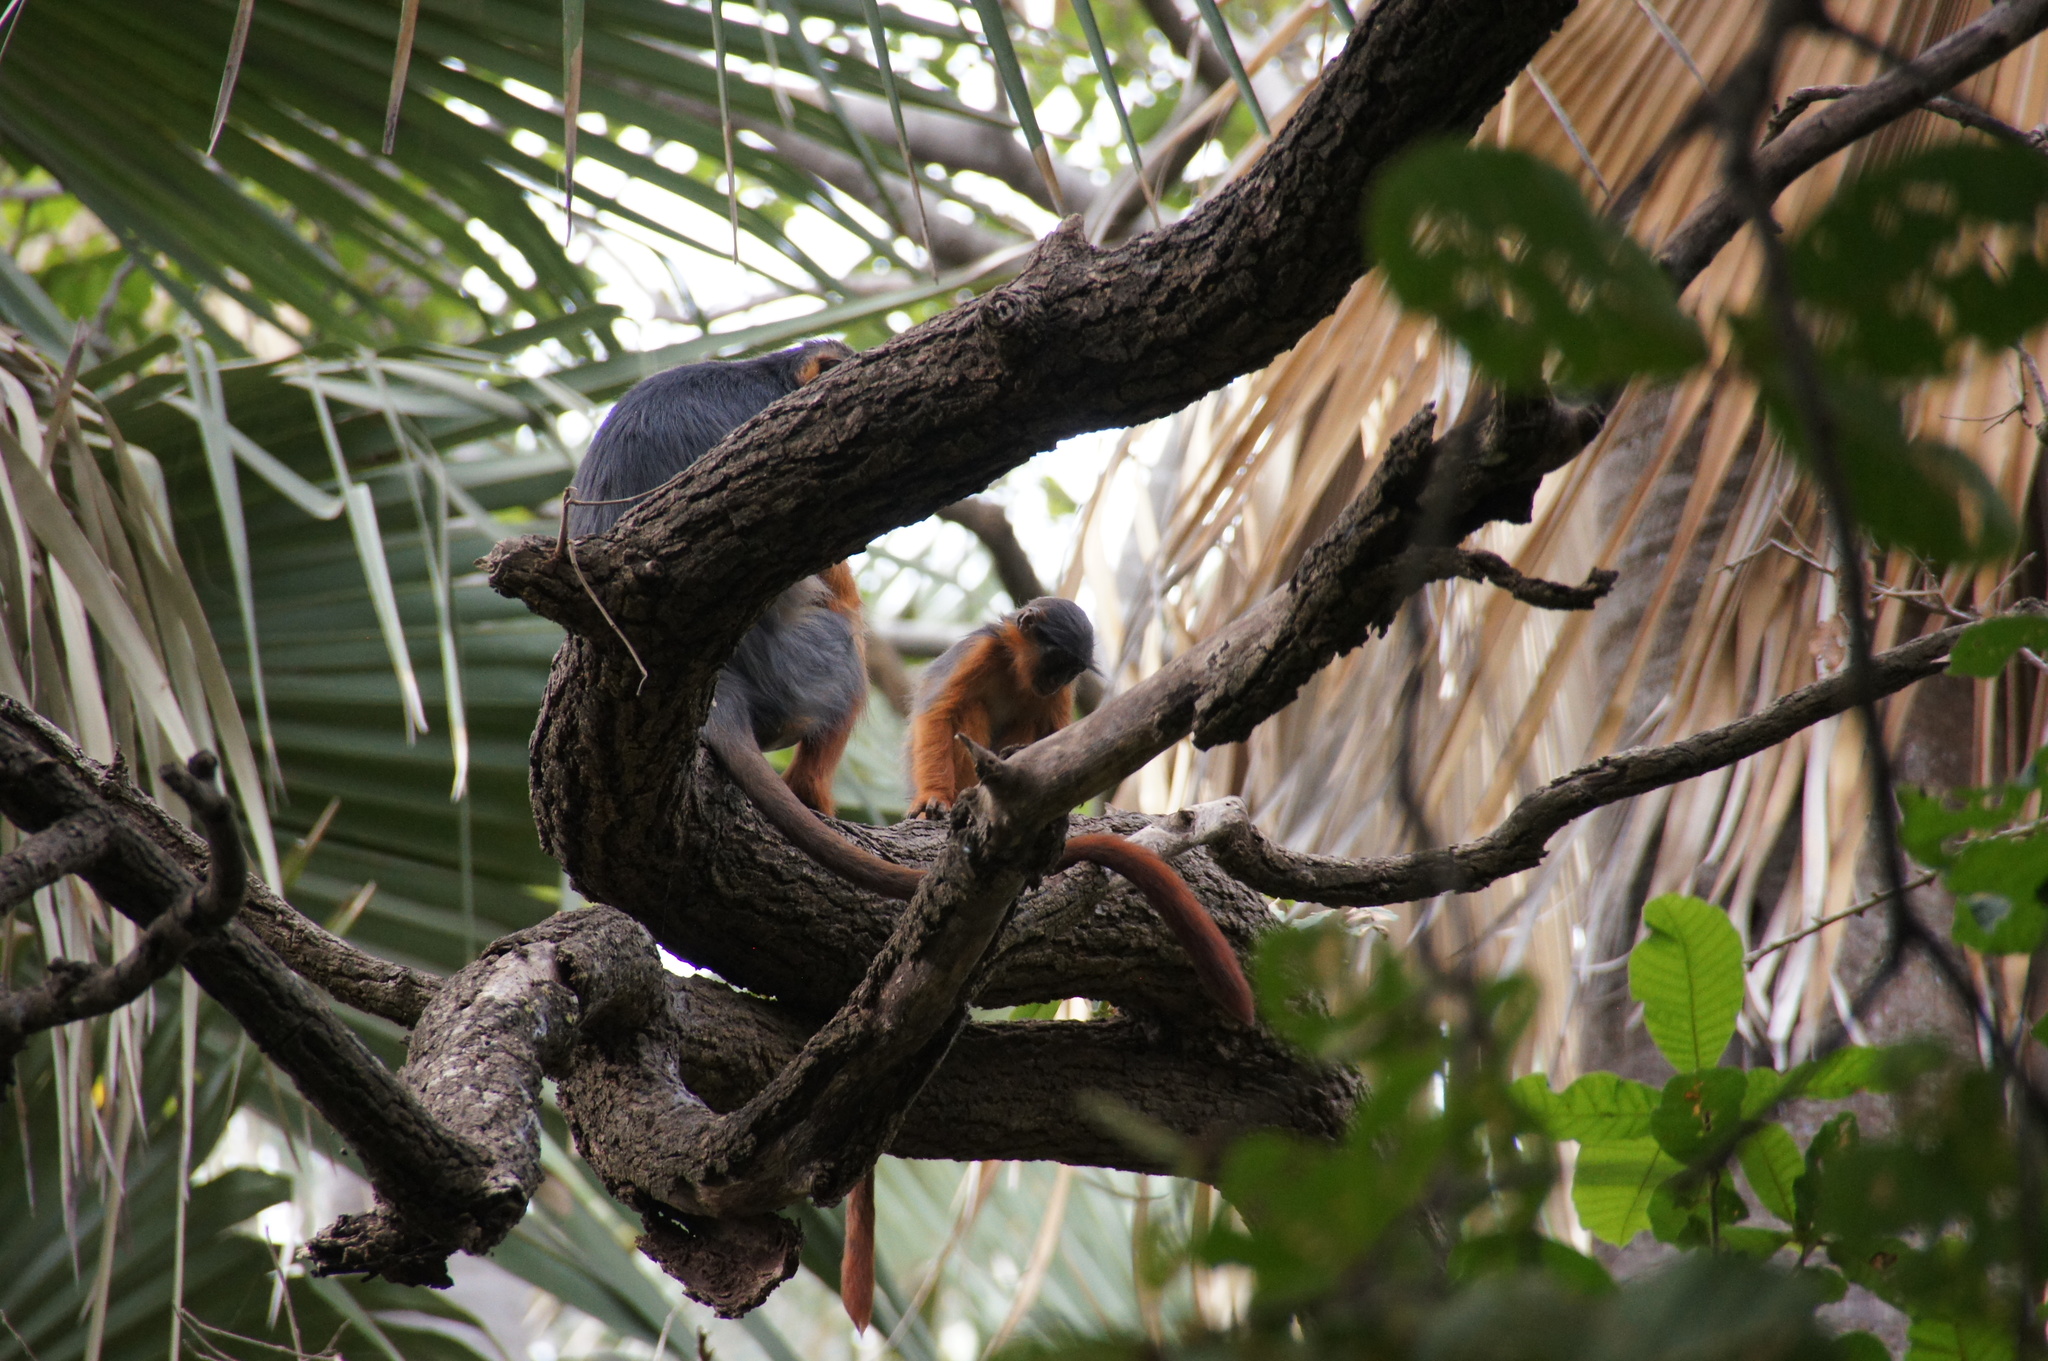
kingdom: Animalia
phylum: Chordata
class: Mammalia
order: Primates
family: Cercopithecidae
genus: Piliocolobus
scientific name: Piliocolobus badius
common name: Western red colobus
